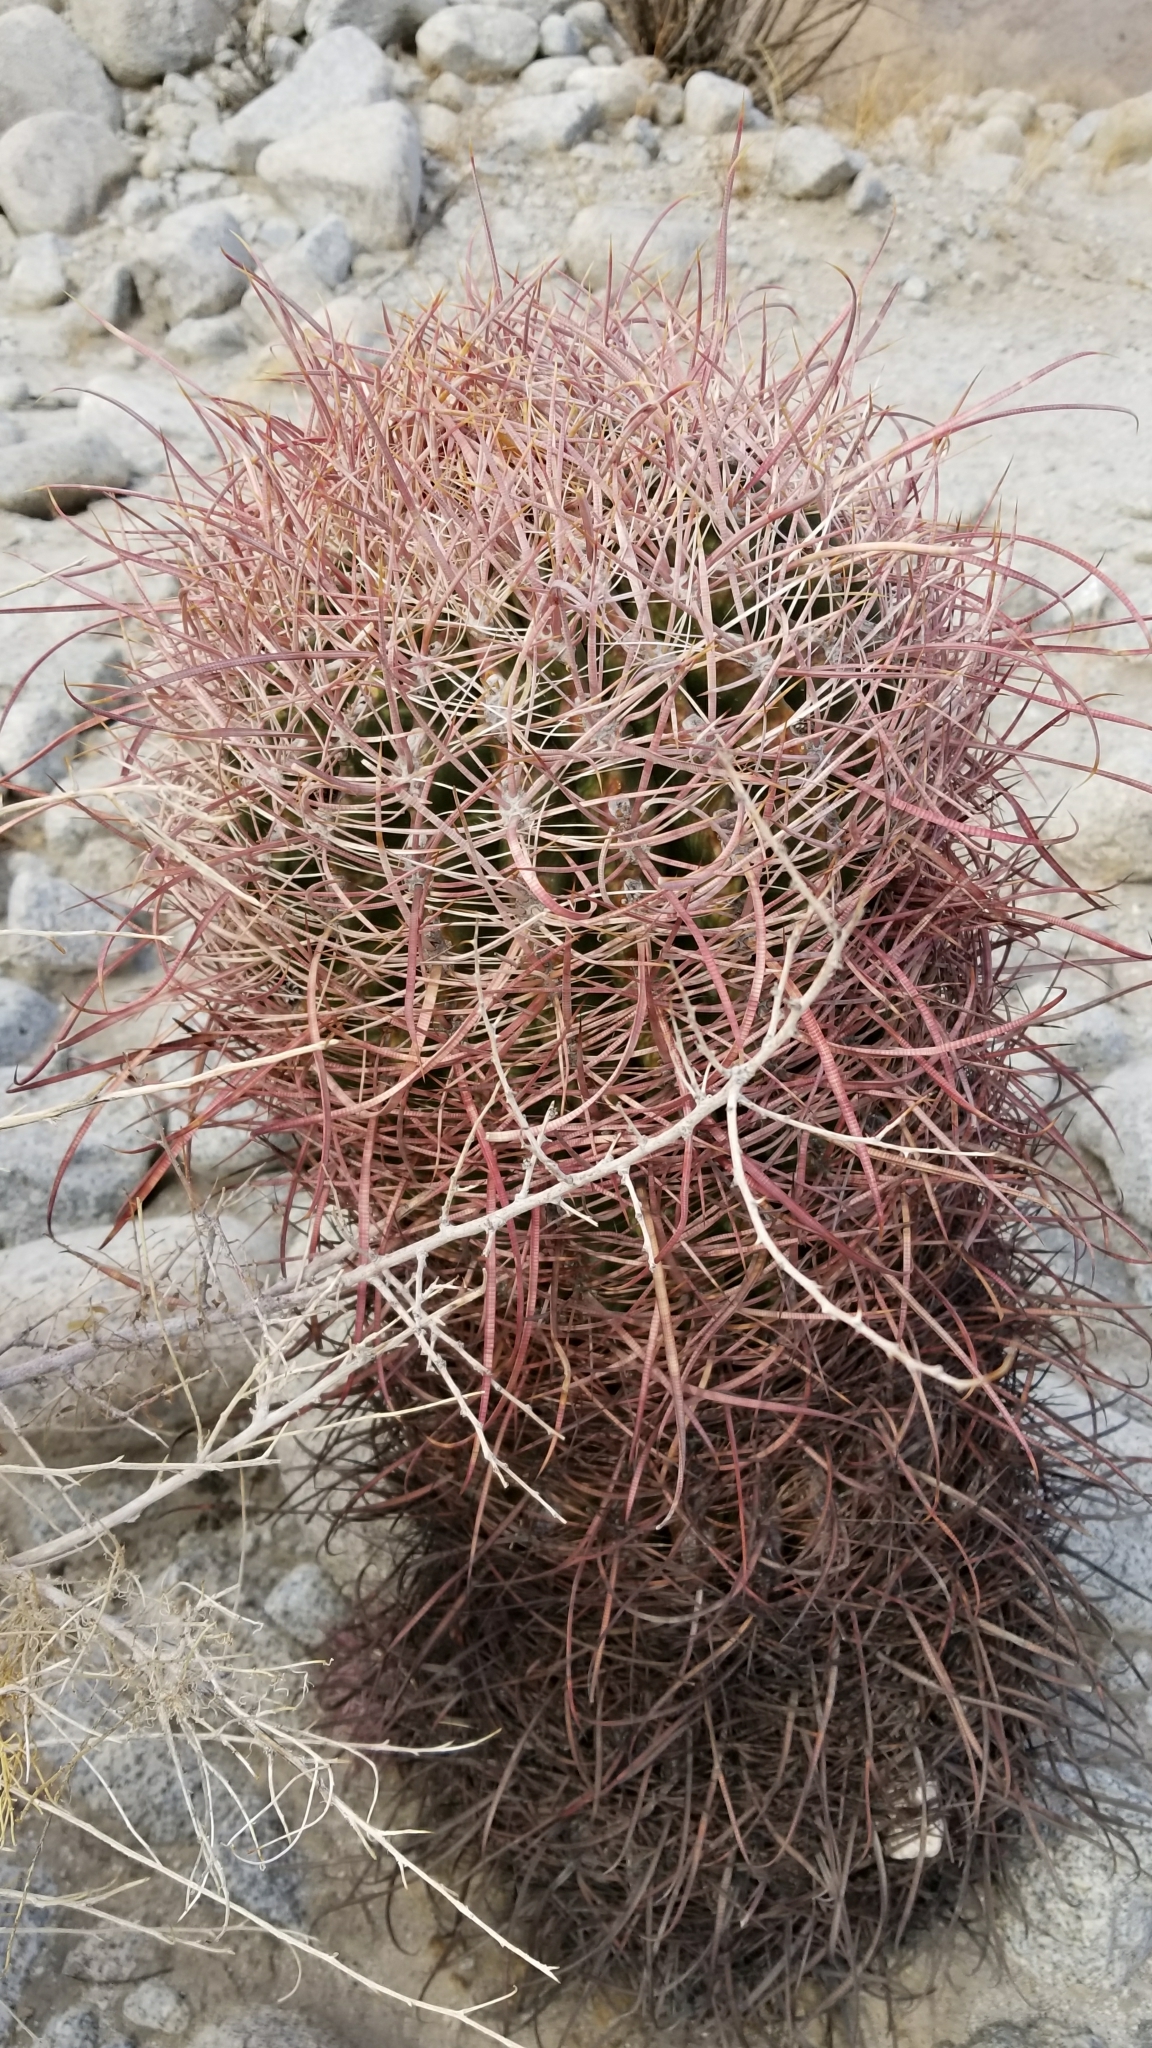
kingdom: Plantae
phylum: Tracheophyta
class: Magnoliopsida
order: Caryophyllales
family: Cactaceae
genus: Ferocactus
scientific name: Ferocactus cylindraceus
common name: California barrel cactus
